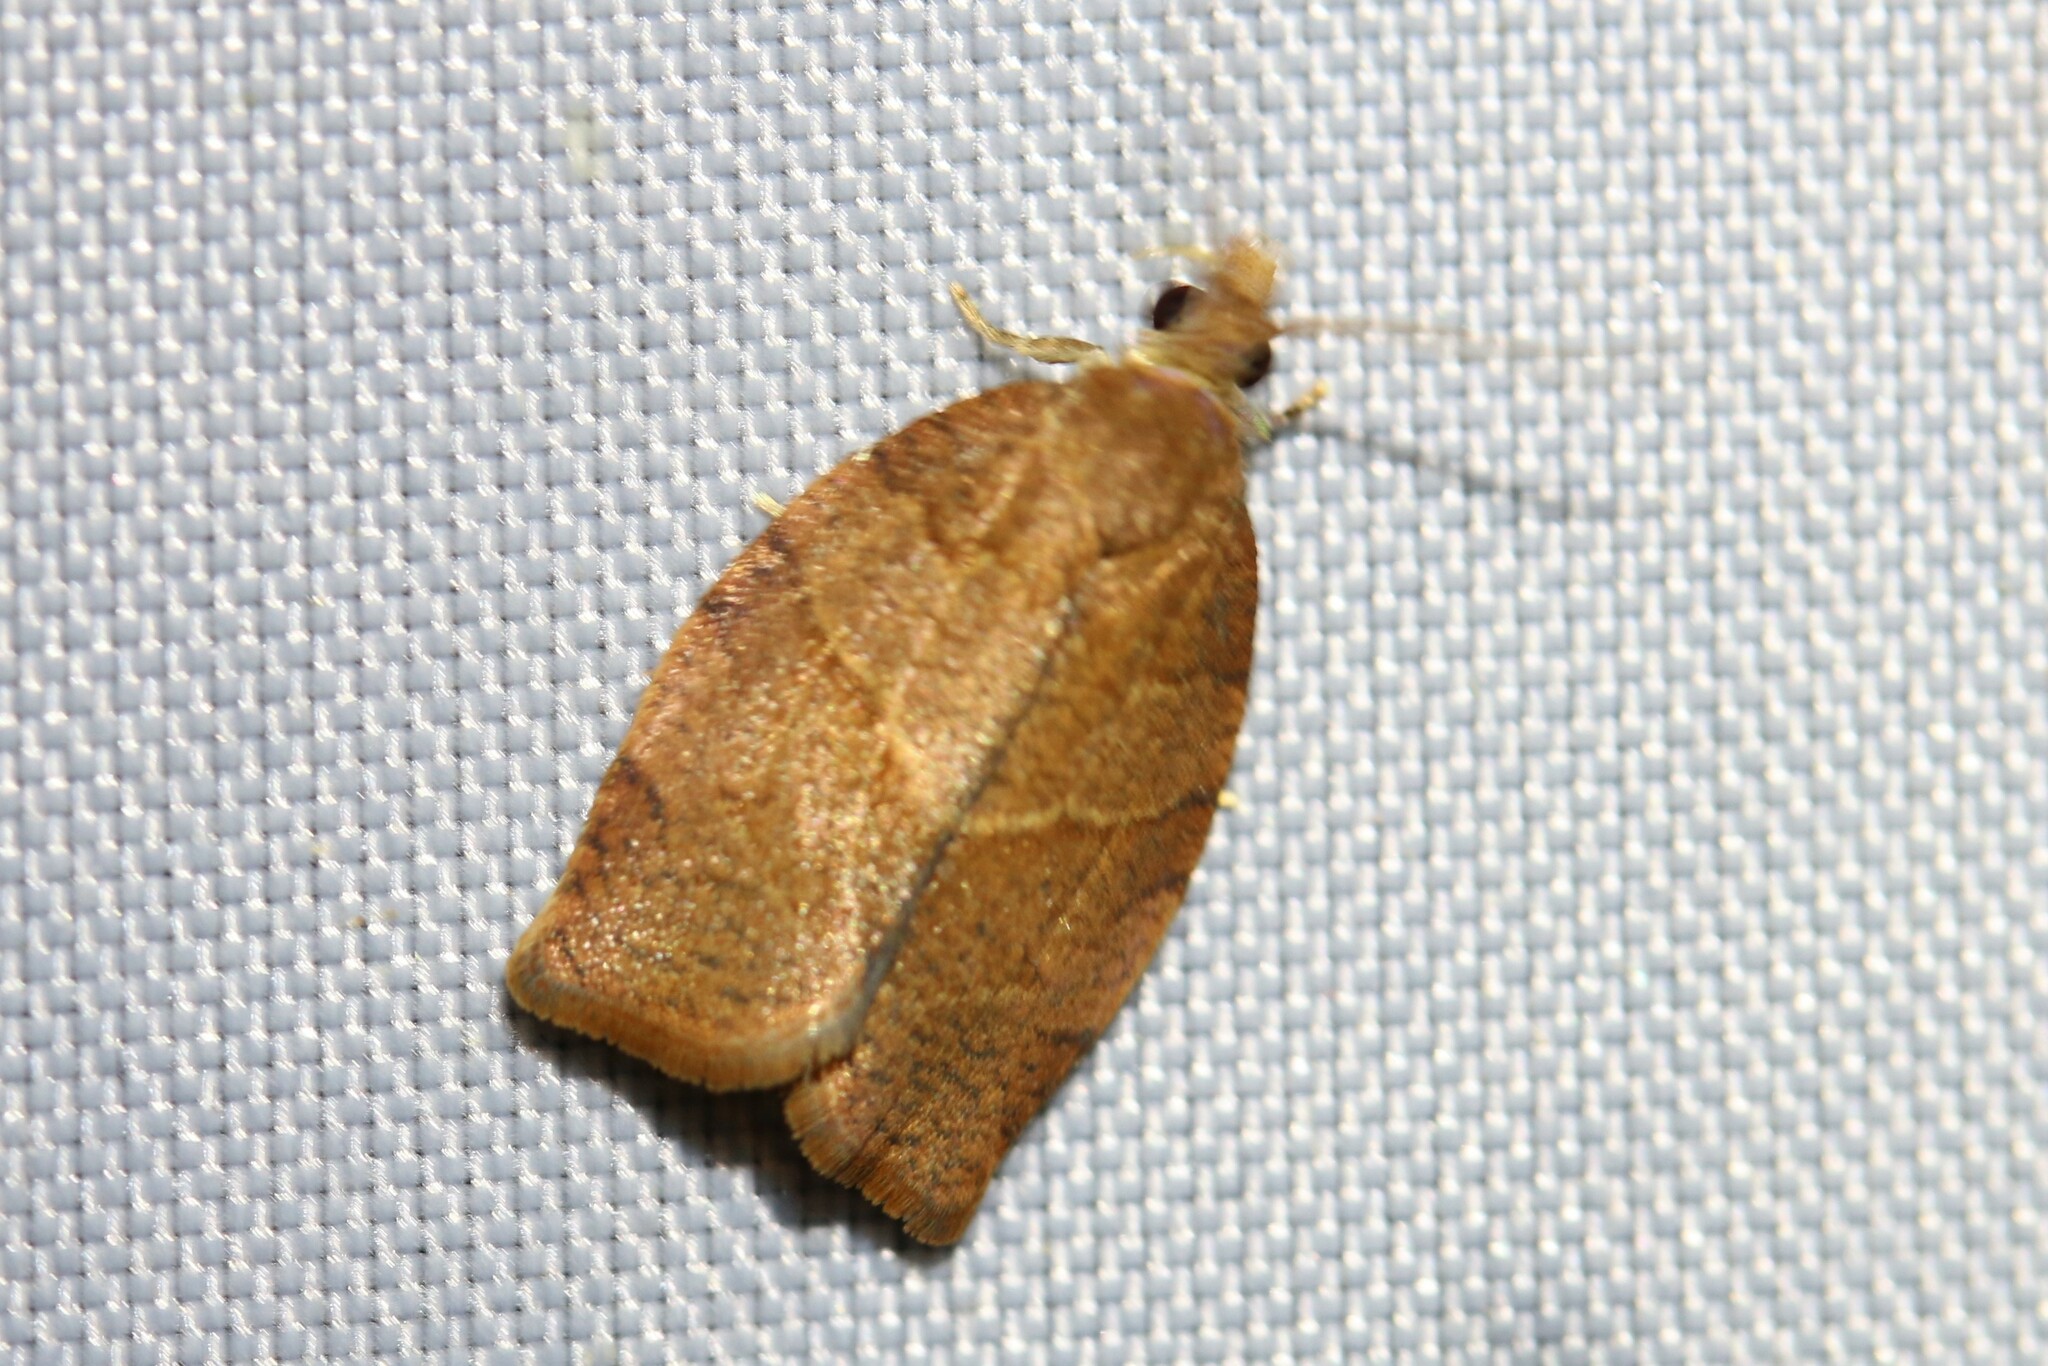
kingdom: Animalia
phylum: Arthropoda
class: Insecta
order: Lepidoptera
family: Tortricidae
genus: Pandemis
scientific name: Pandemis heparana
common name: Dark fruit-tree tortrix
